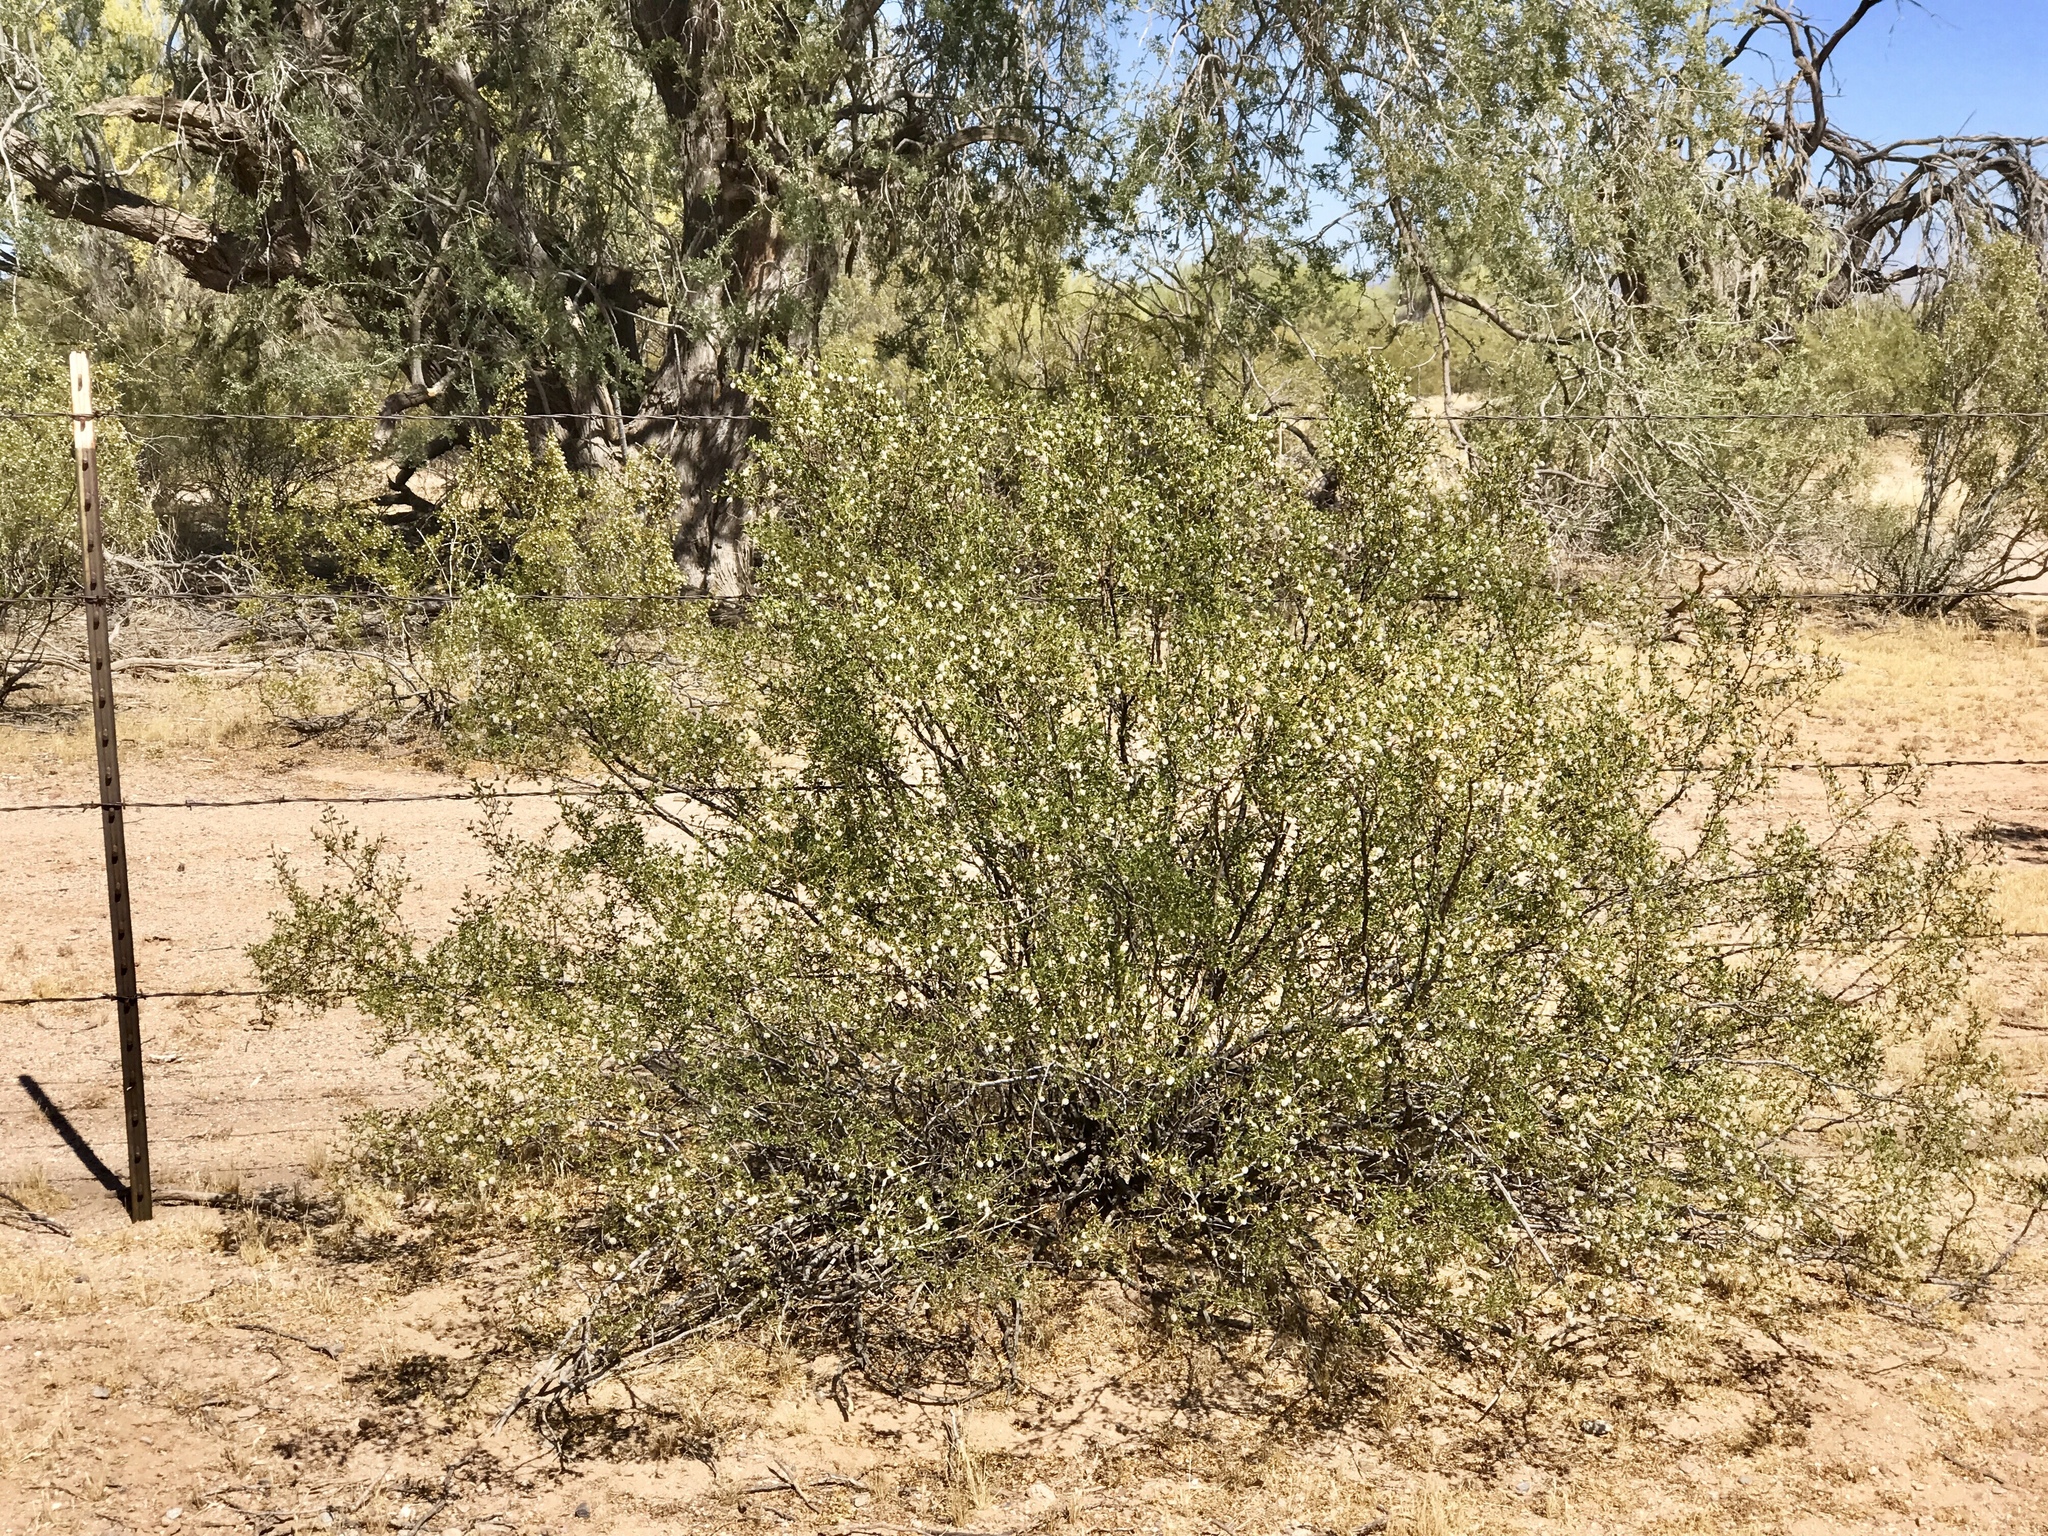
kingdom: Plantae
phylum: Tracheophyta
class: Magnoliopsida
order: Zygophyllales
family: Zygophyllaceae
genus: Larrea
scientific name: Larrea tridentata
